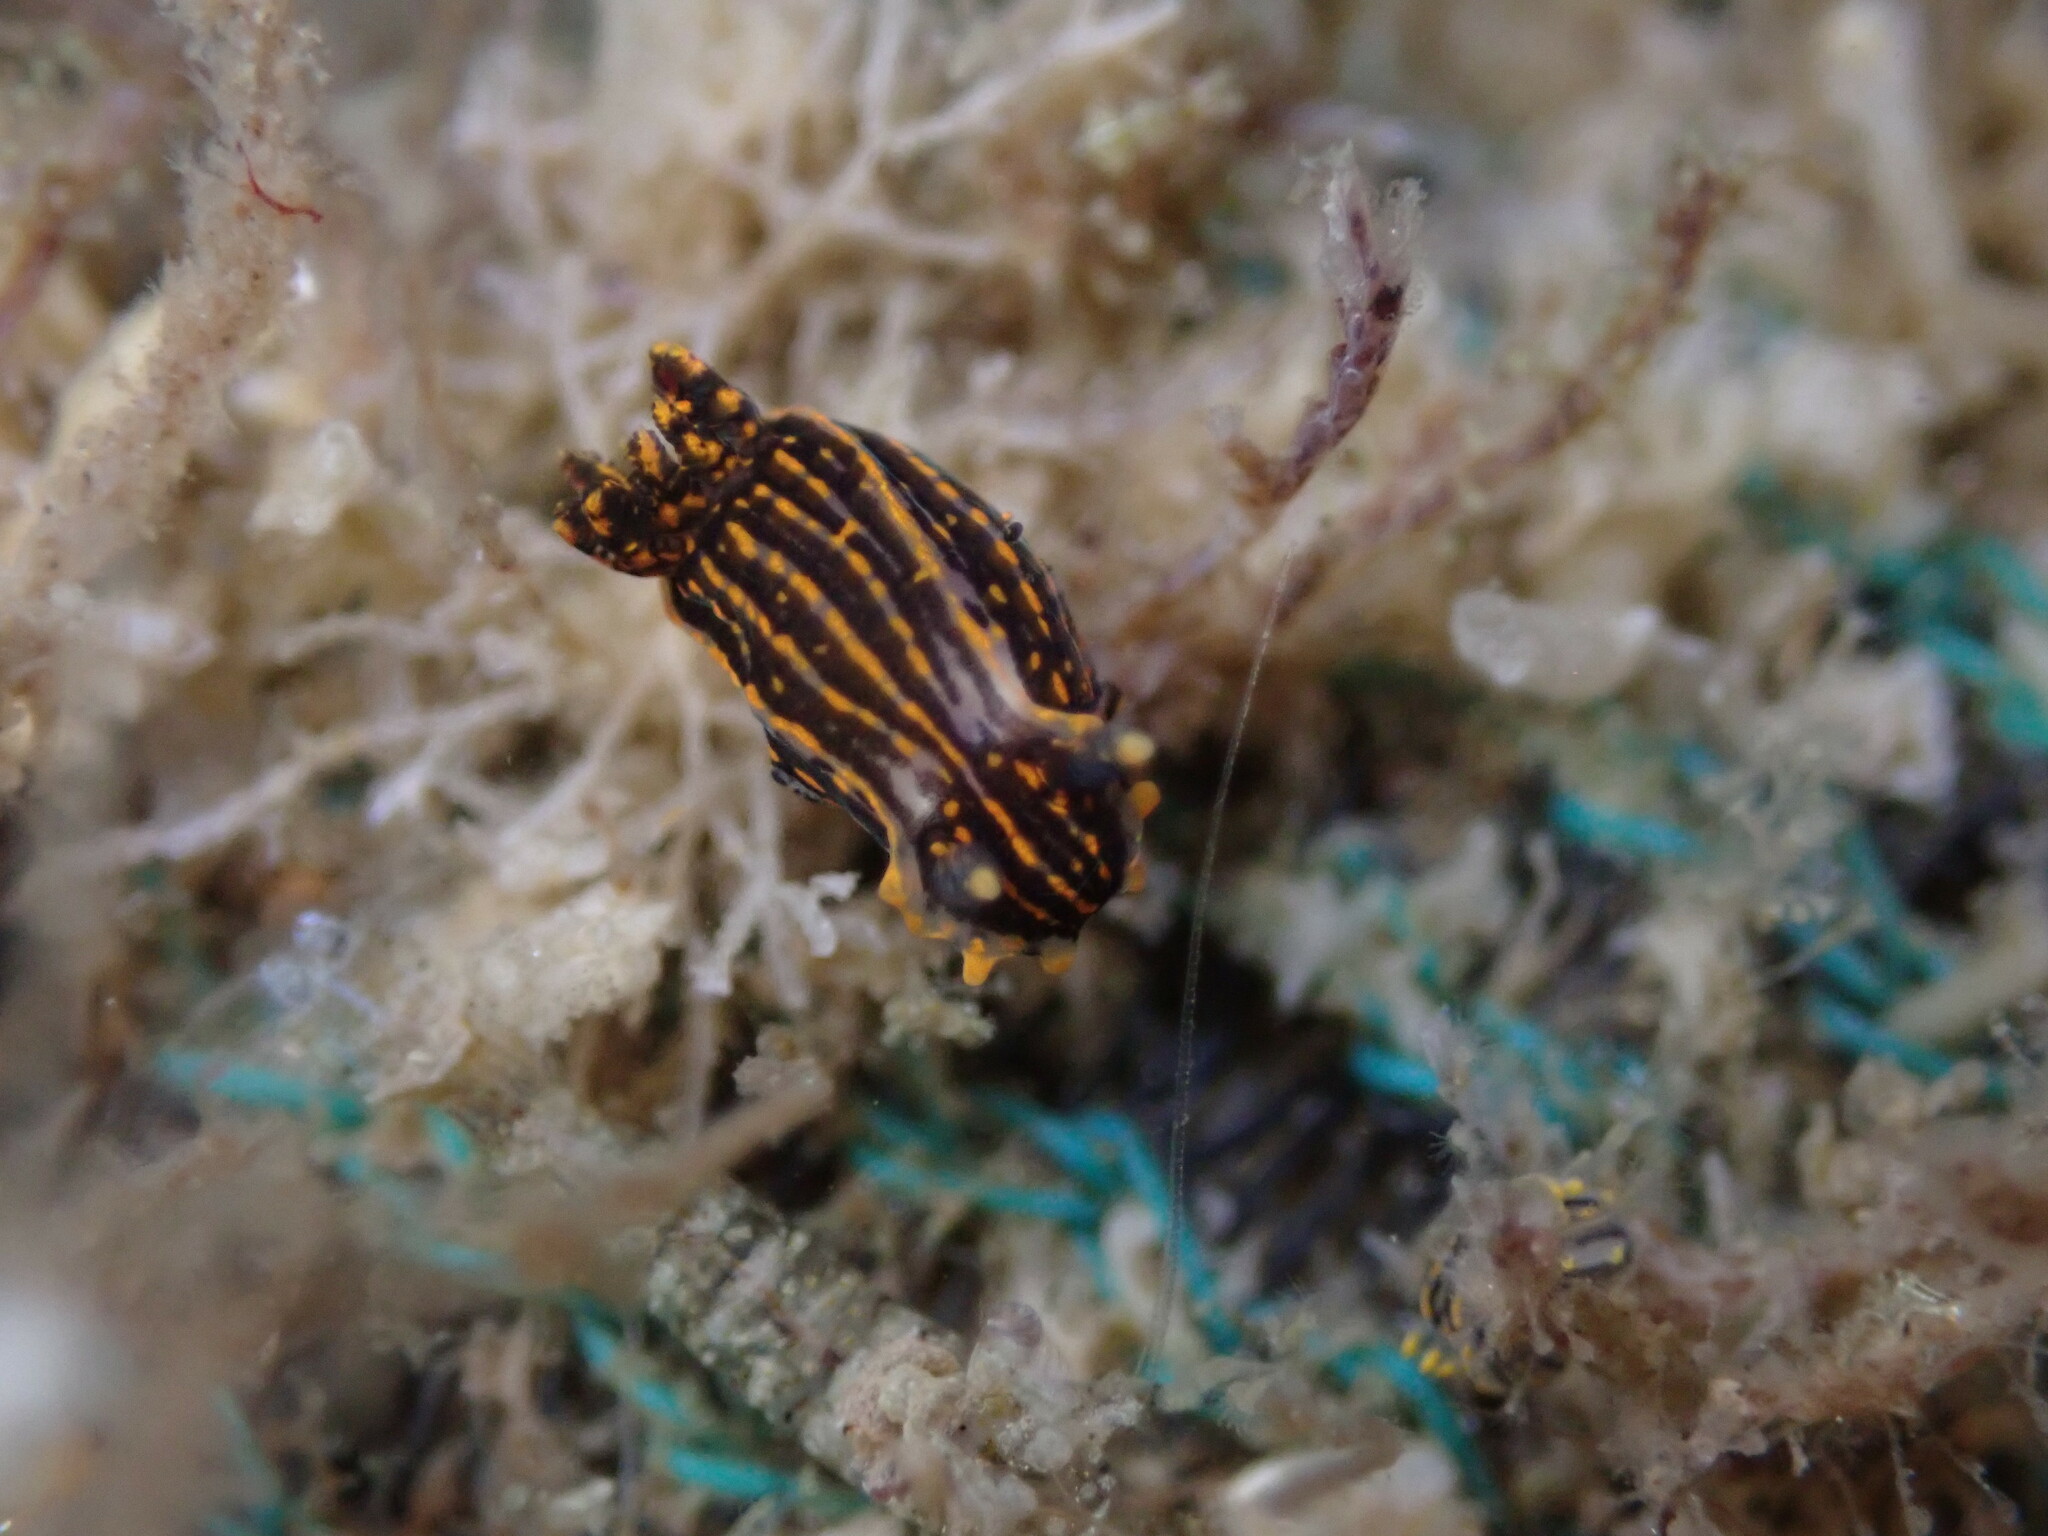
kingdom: Animalia
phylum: Mollusca
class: Gastropoda
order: Nudibranchia
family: Polyceridae
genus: Polycera
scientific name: Polycera atra
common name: Orange-spike polycera
